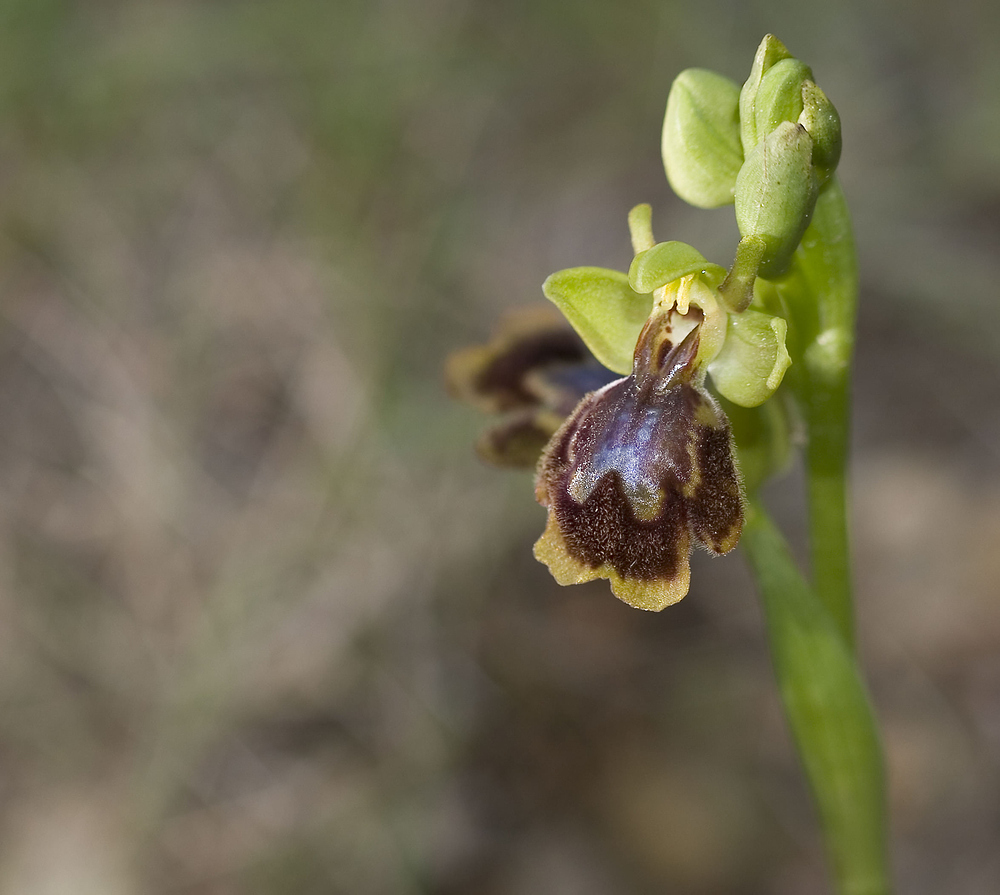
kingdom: Plantae
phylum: Tracheophyta
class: Liliopsida
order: Asparagales
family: Orchidaceae
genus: Ophrys
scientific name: Ophrys chobautii
